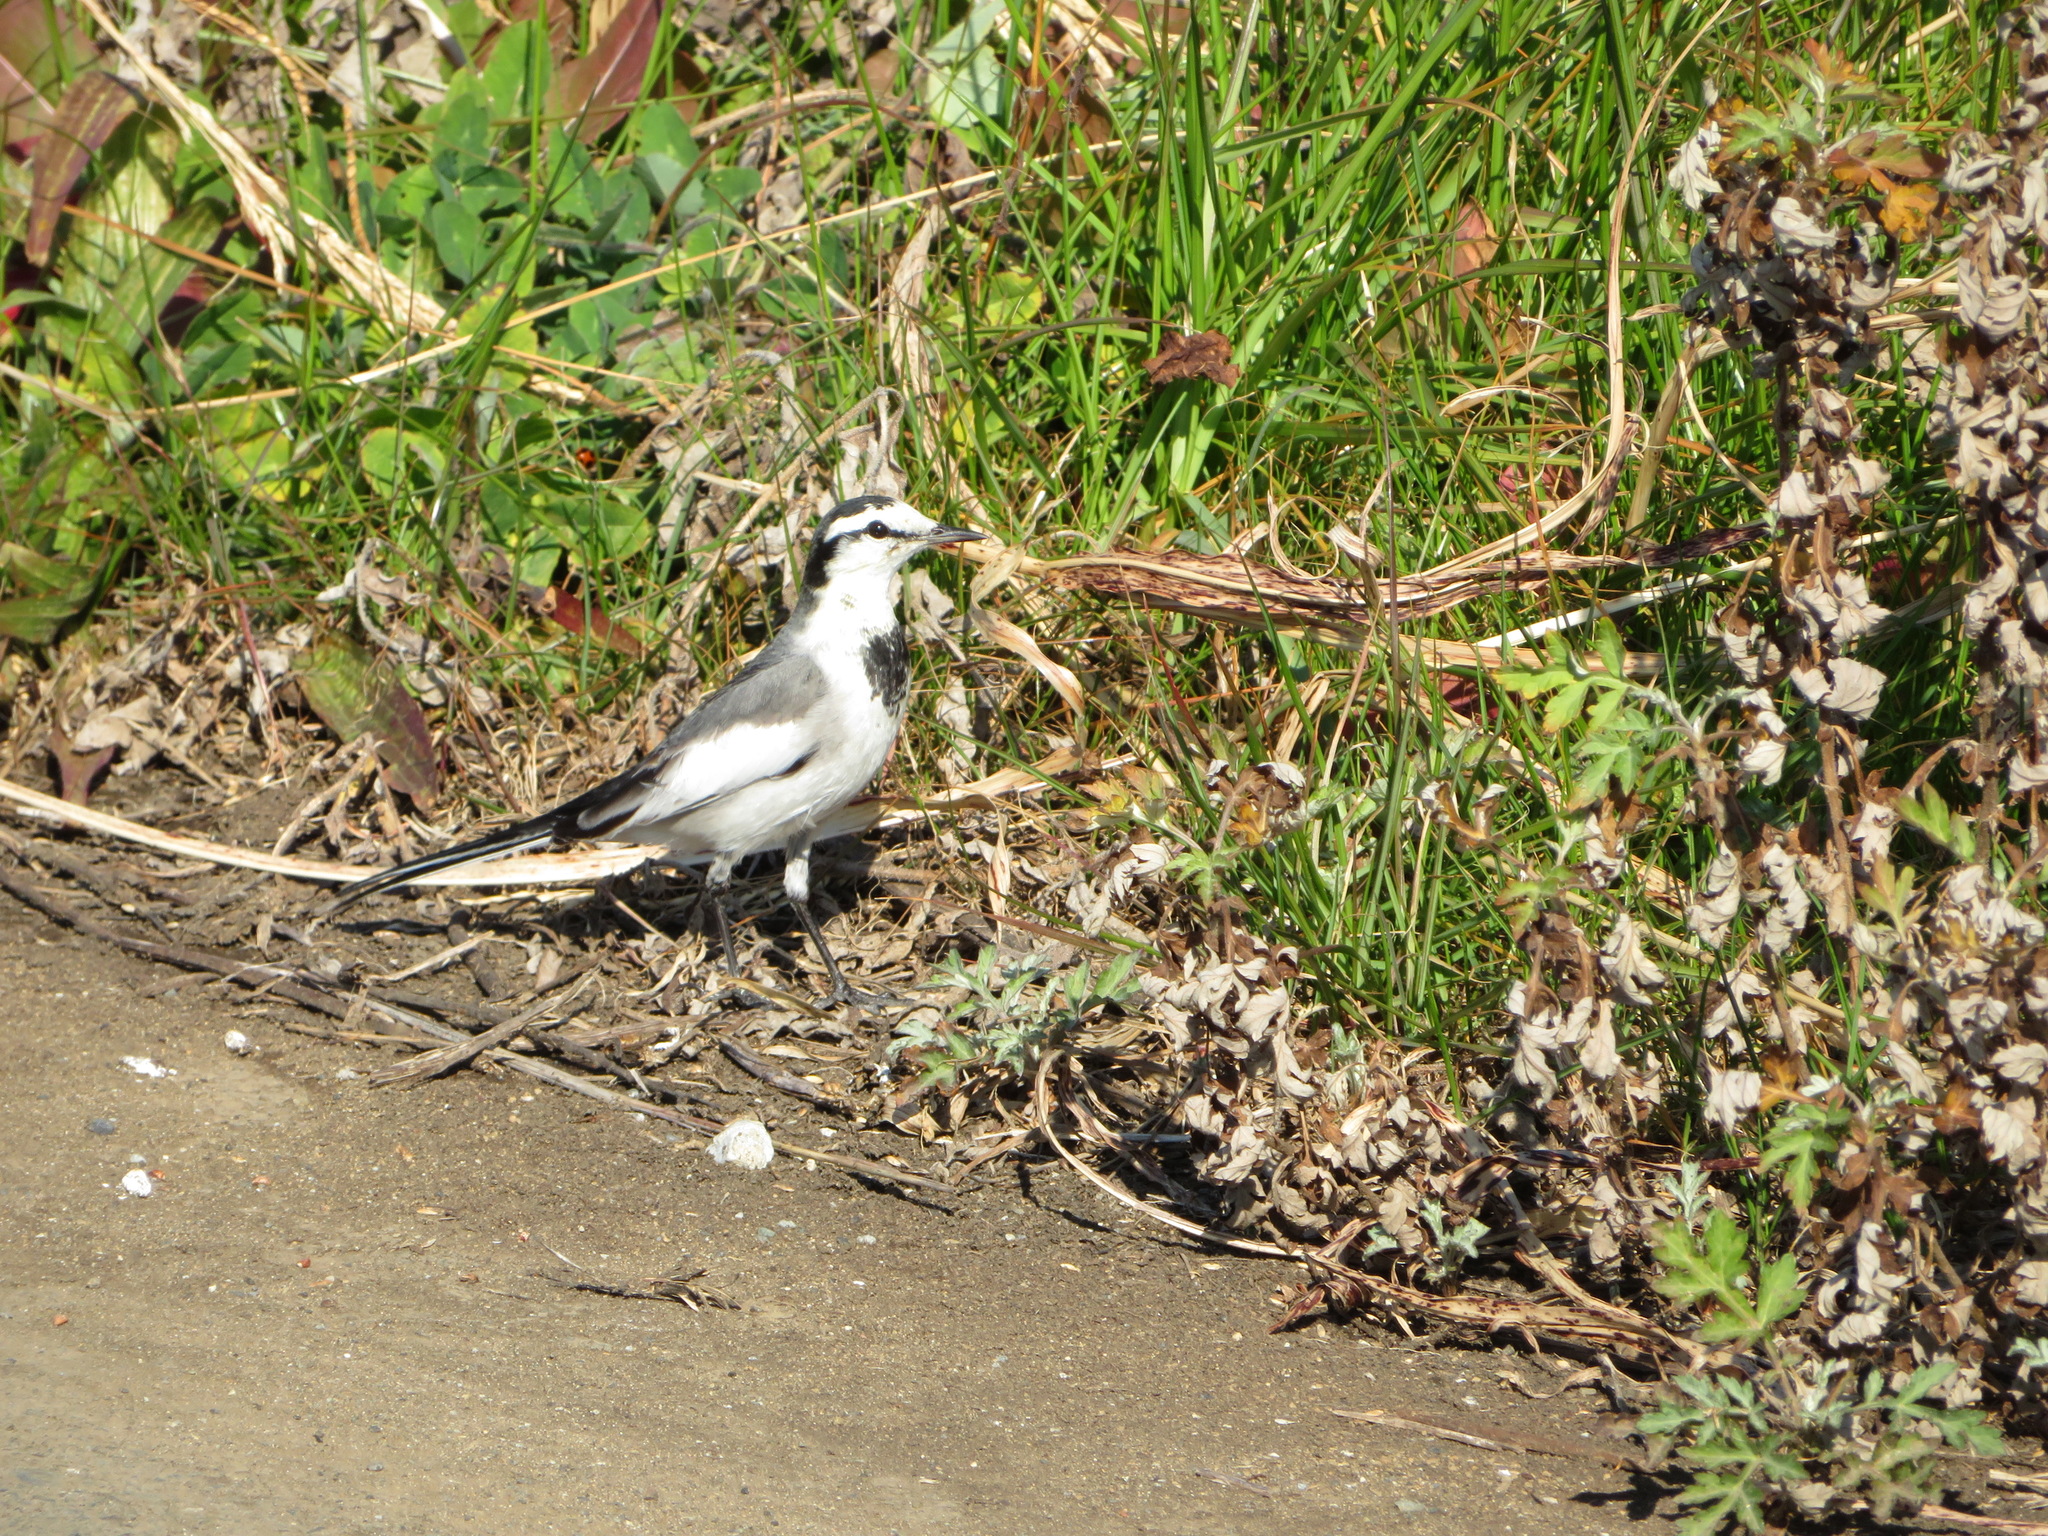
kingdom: Animalia
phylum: Chordata
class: Aves
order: Passeriformes
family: Motacillidae
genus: Motacilla
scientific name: Motacilla alba
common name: White wagtail
